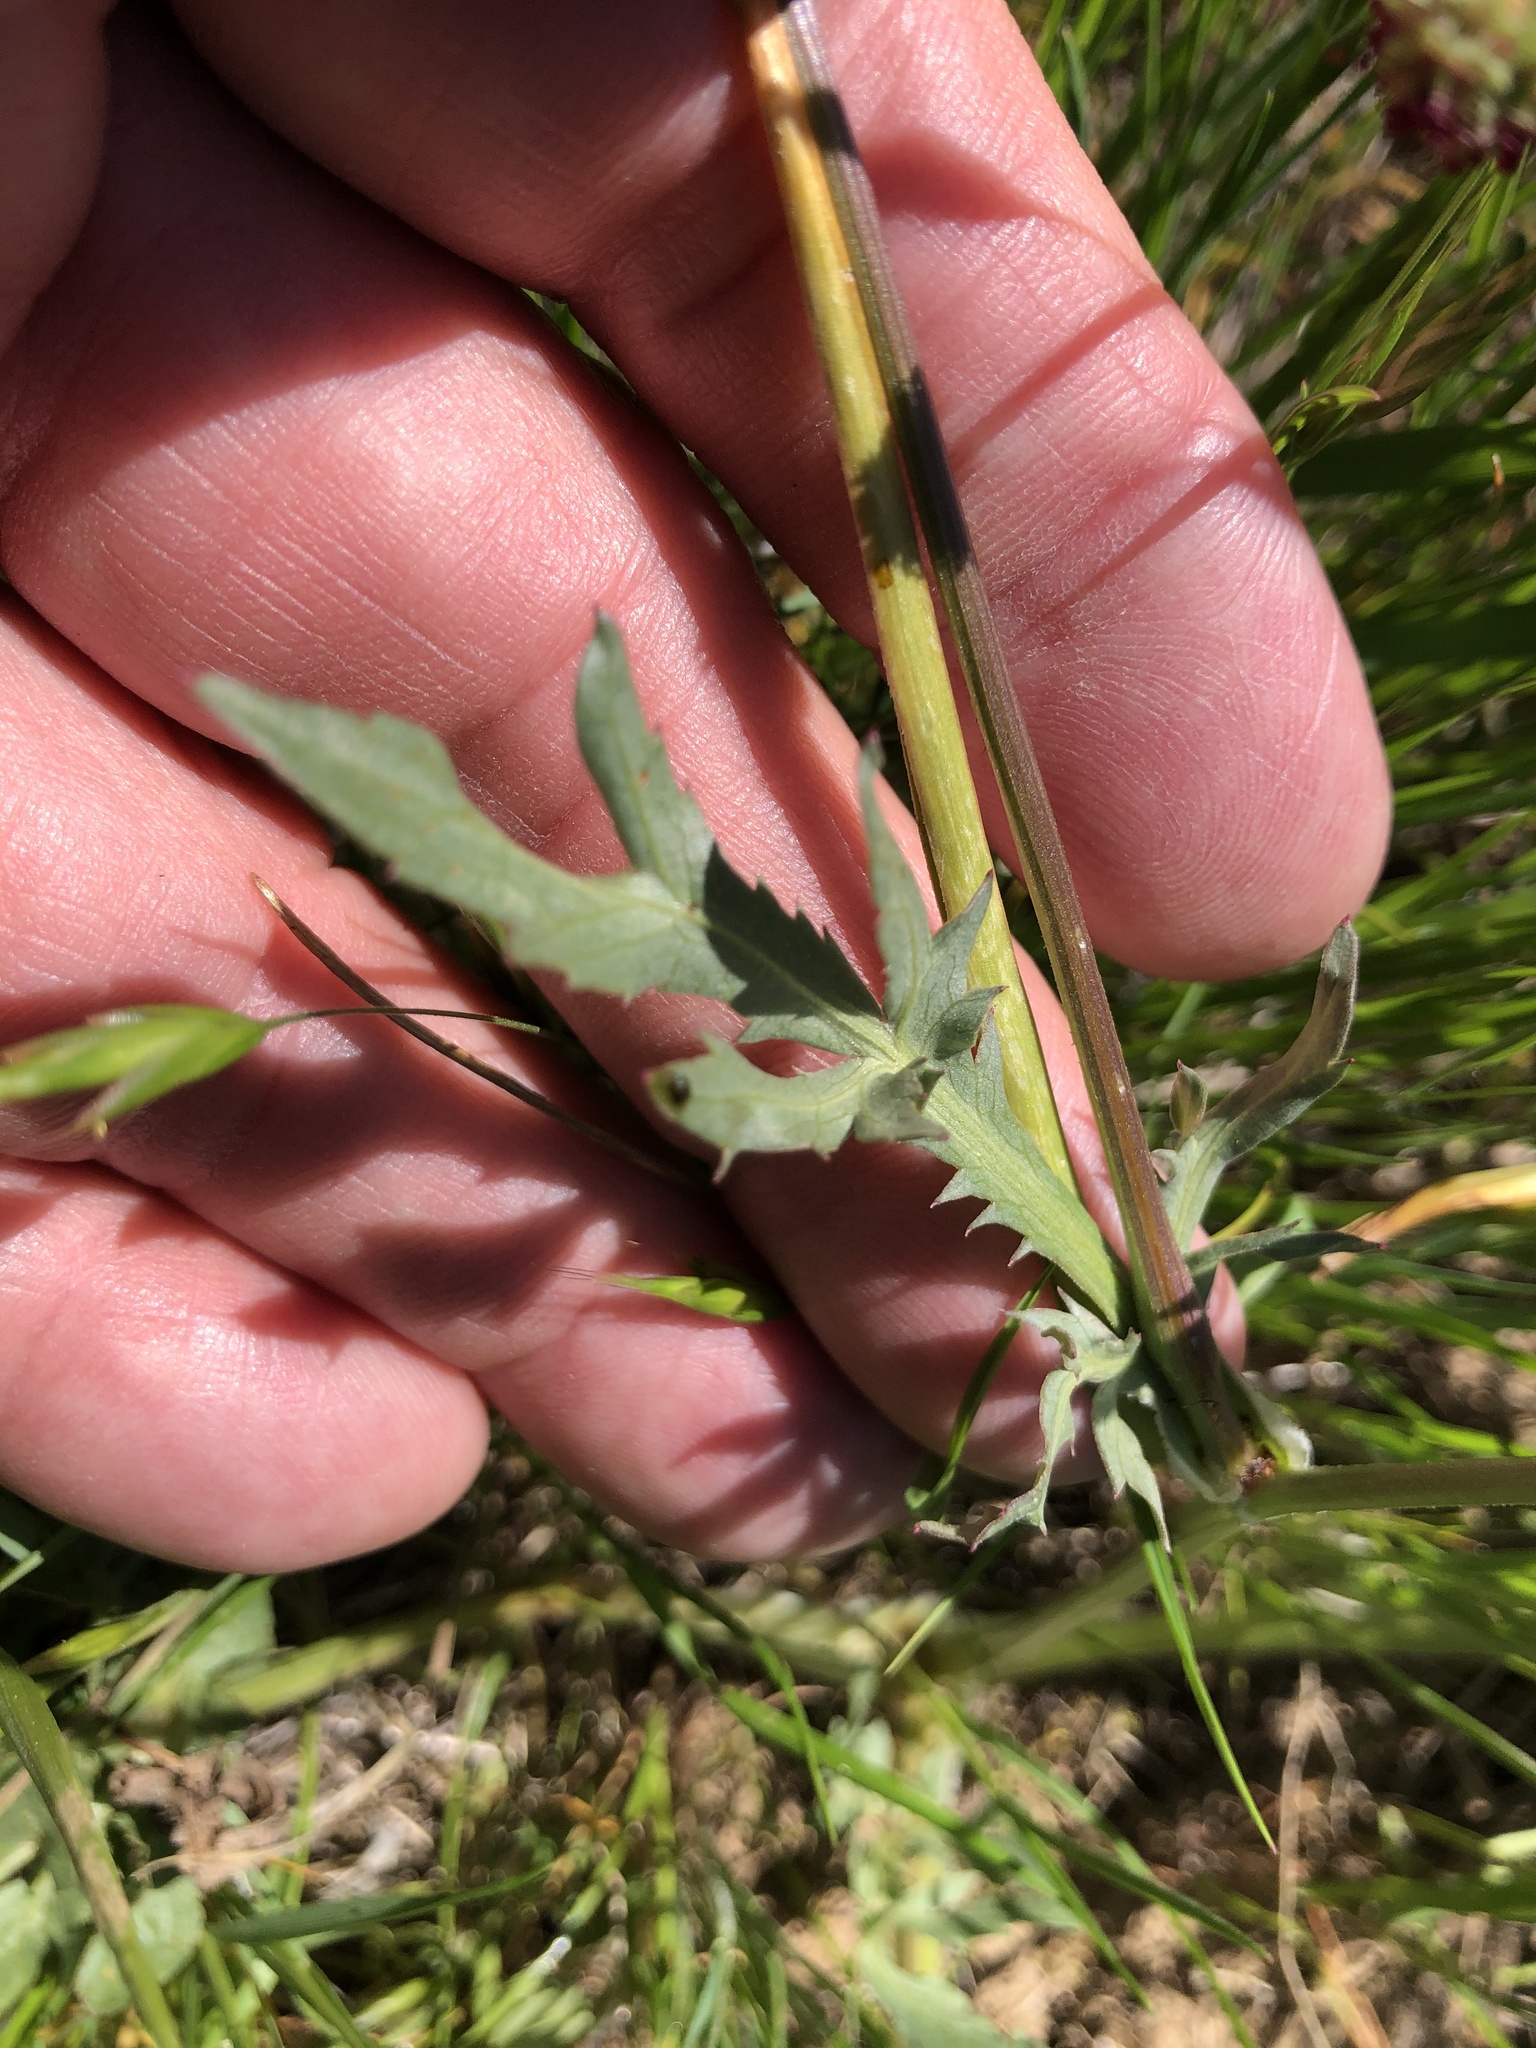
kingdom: Plantae
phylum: Tracheophyta
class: Magnoliopsida
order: Apiales
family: Apiaceae
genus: Sanicula
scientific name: Sanicula bipinnatifida
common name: Shoe-buttons
